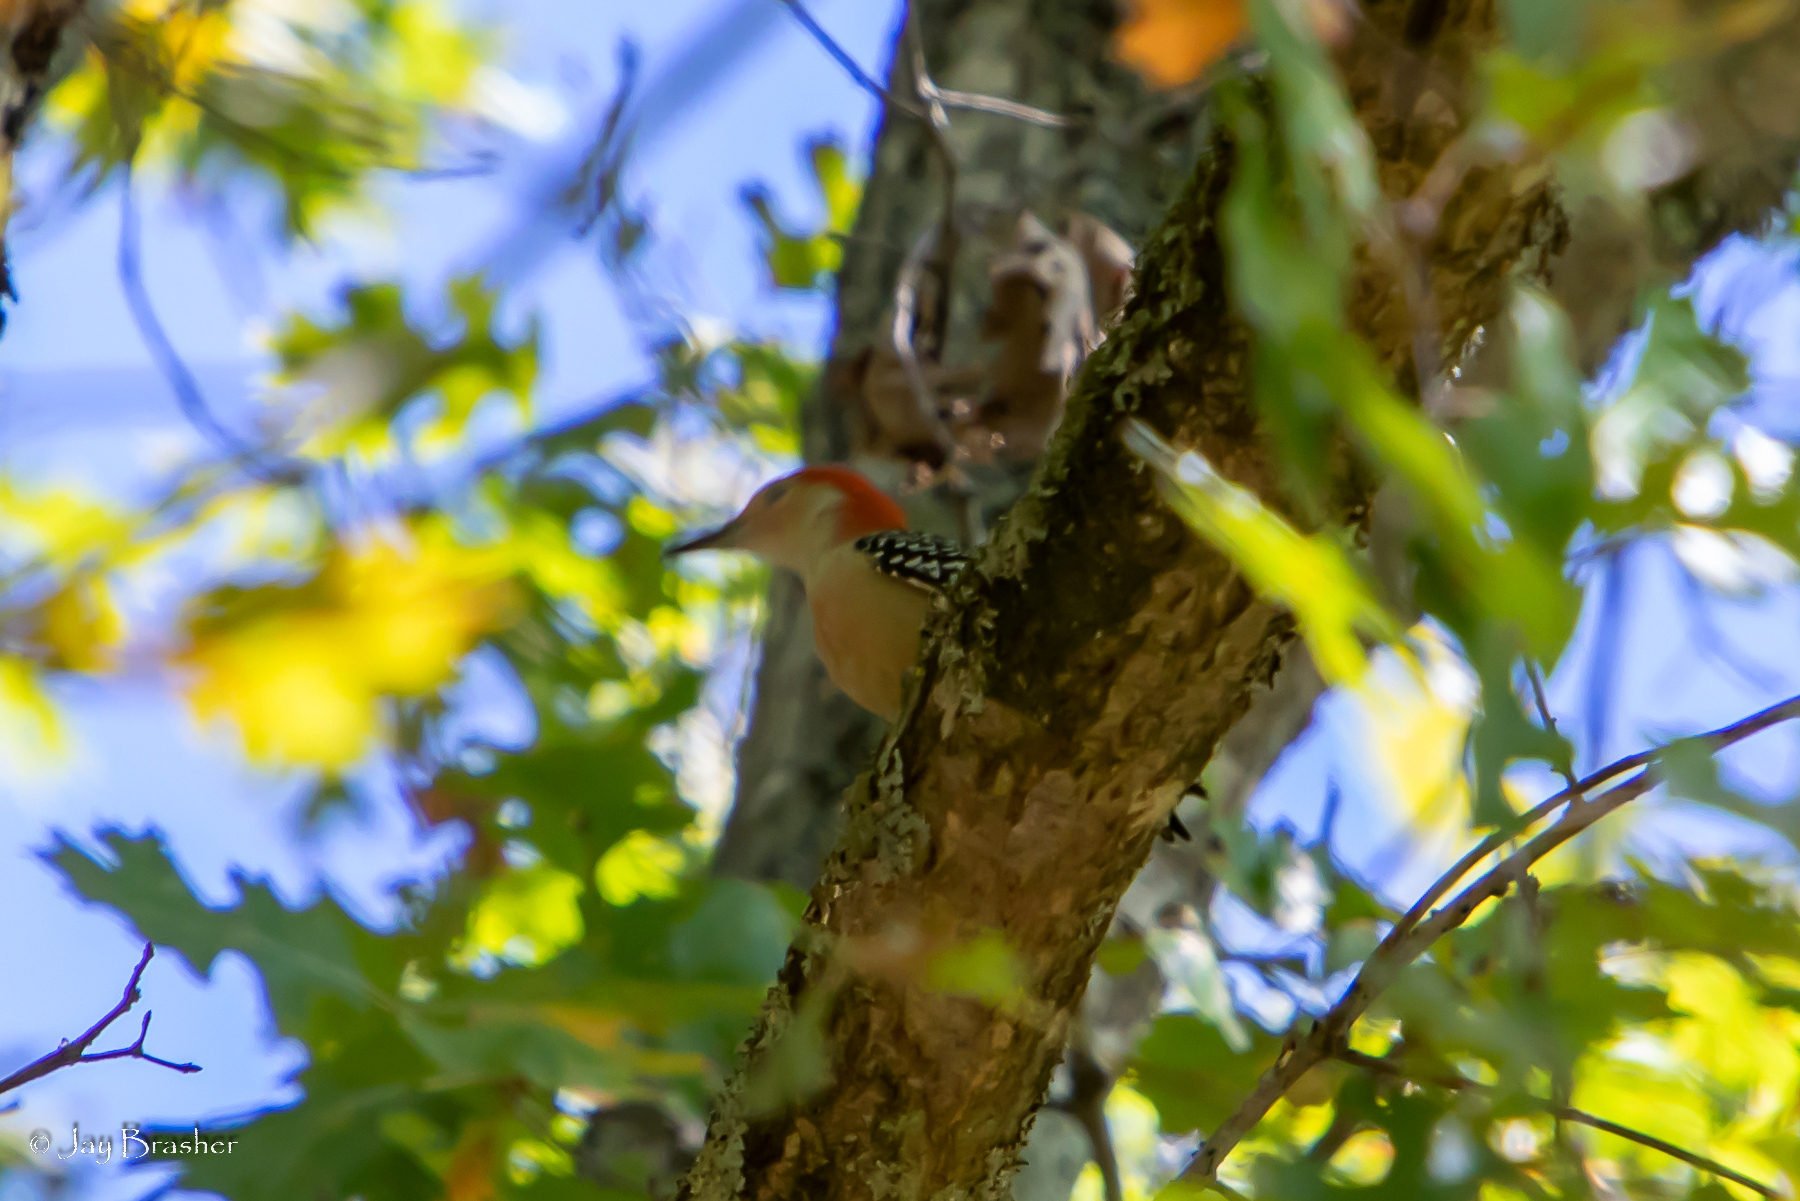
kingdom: Animalia
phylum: Chordata
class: Aves
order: Piciformes
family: Picidae
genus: Melanerpes
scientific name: Melanerpes carolinus
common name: Red-bellied woodpecker
